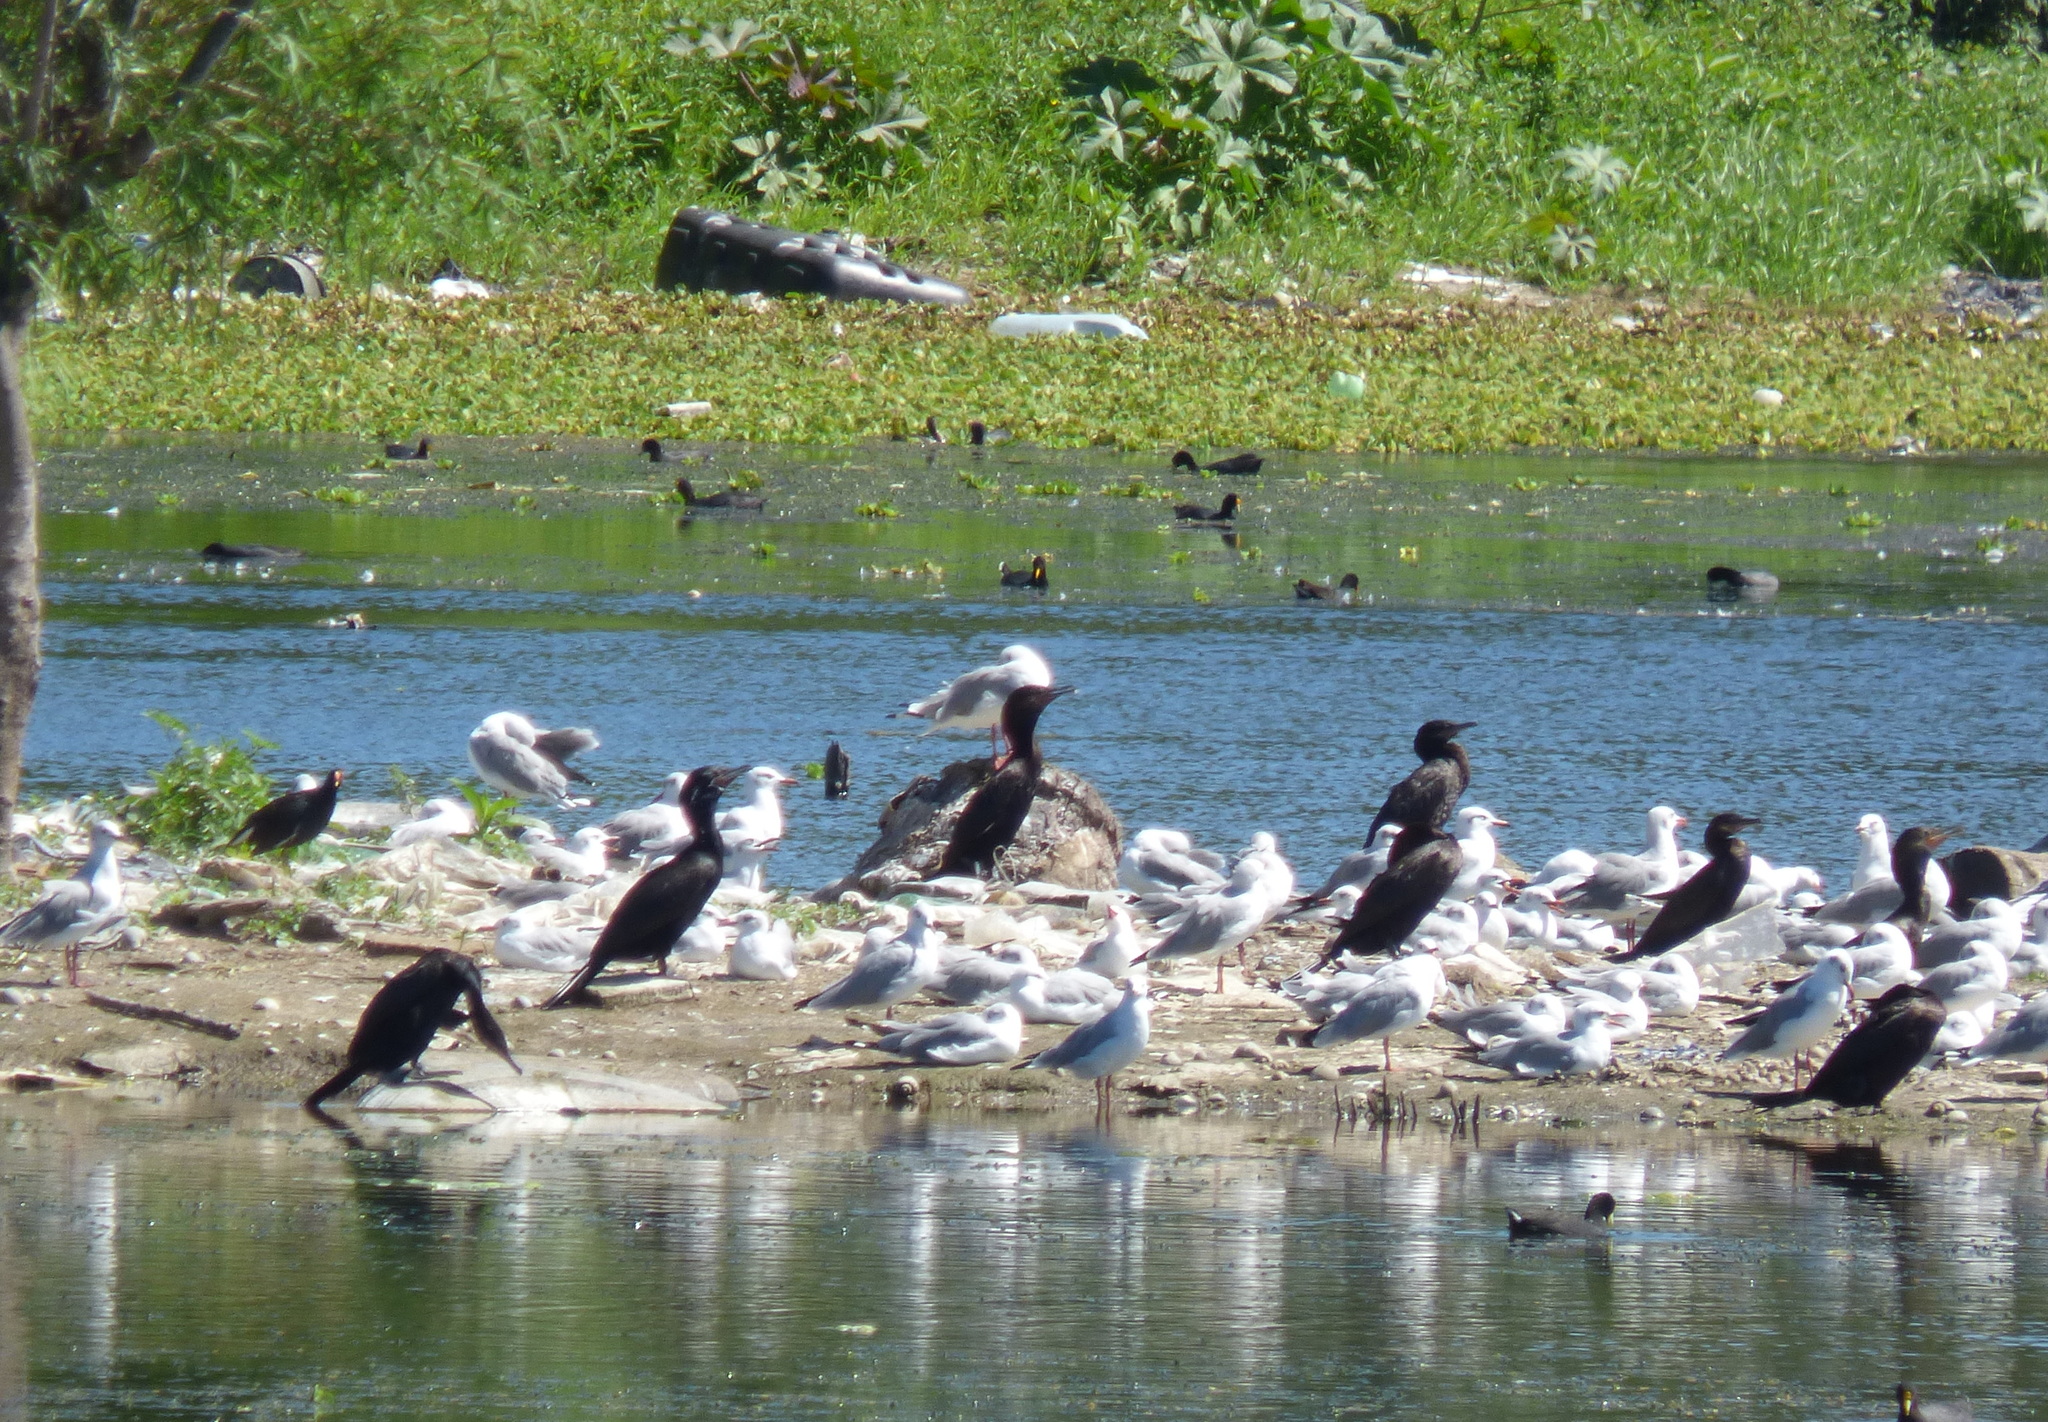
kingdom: Animalia
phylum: Chordata
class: Aves
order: Suliformes
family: Phalacrocoracidae
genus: Phalacrocorax
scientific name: Phalacrocorax brasilianus
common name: Neotropic cormorant
